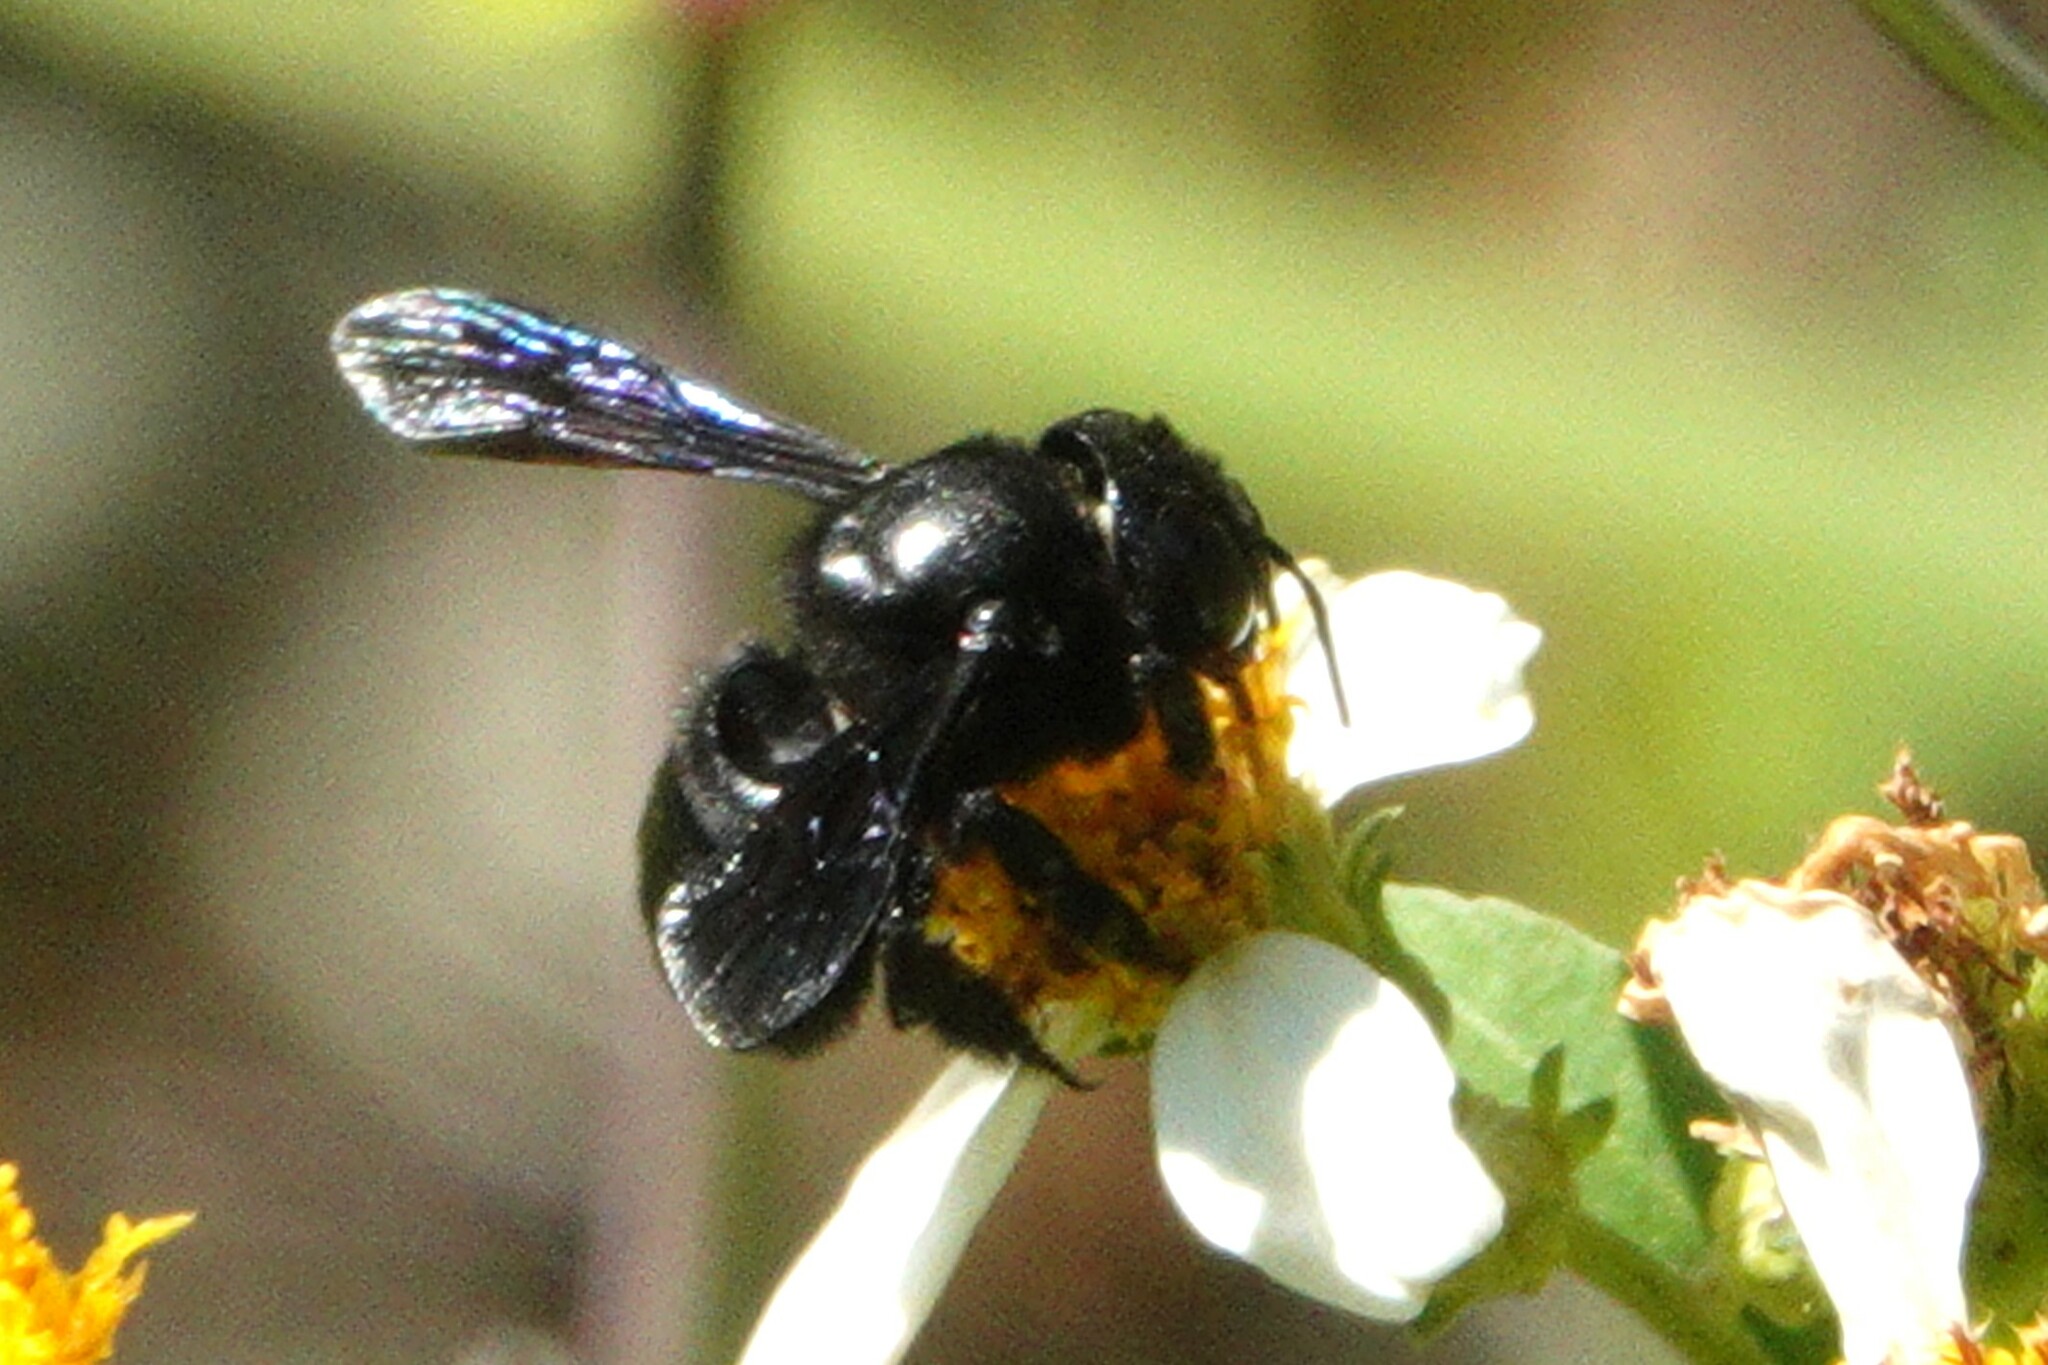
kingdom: Animalia
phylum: Arthropoda
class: Insecta
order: Hymenoptera
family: Megachilidae
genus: Megachile
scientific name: Megachile xylocopoides
